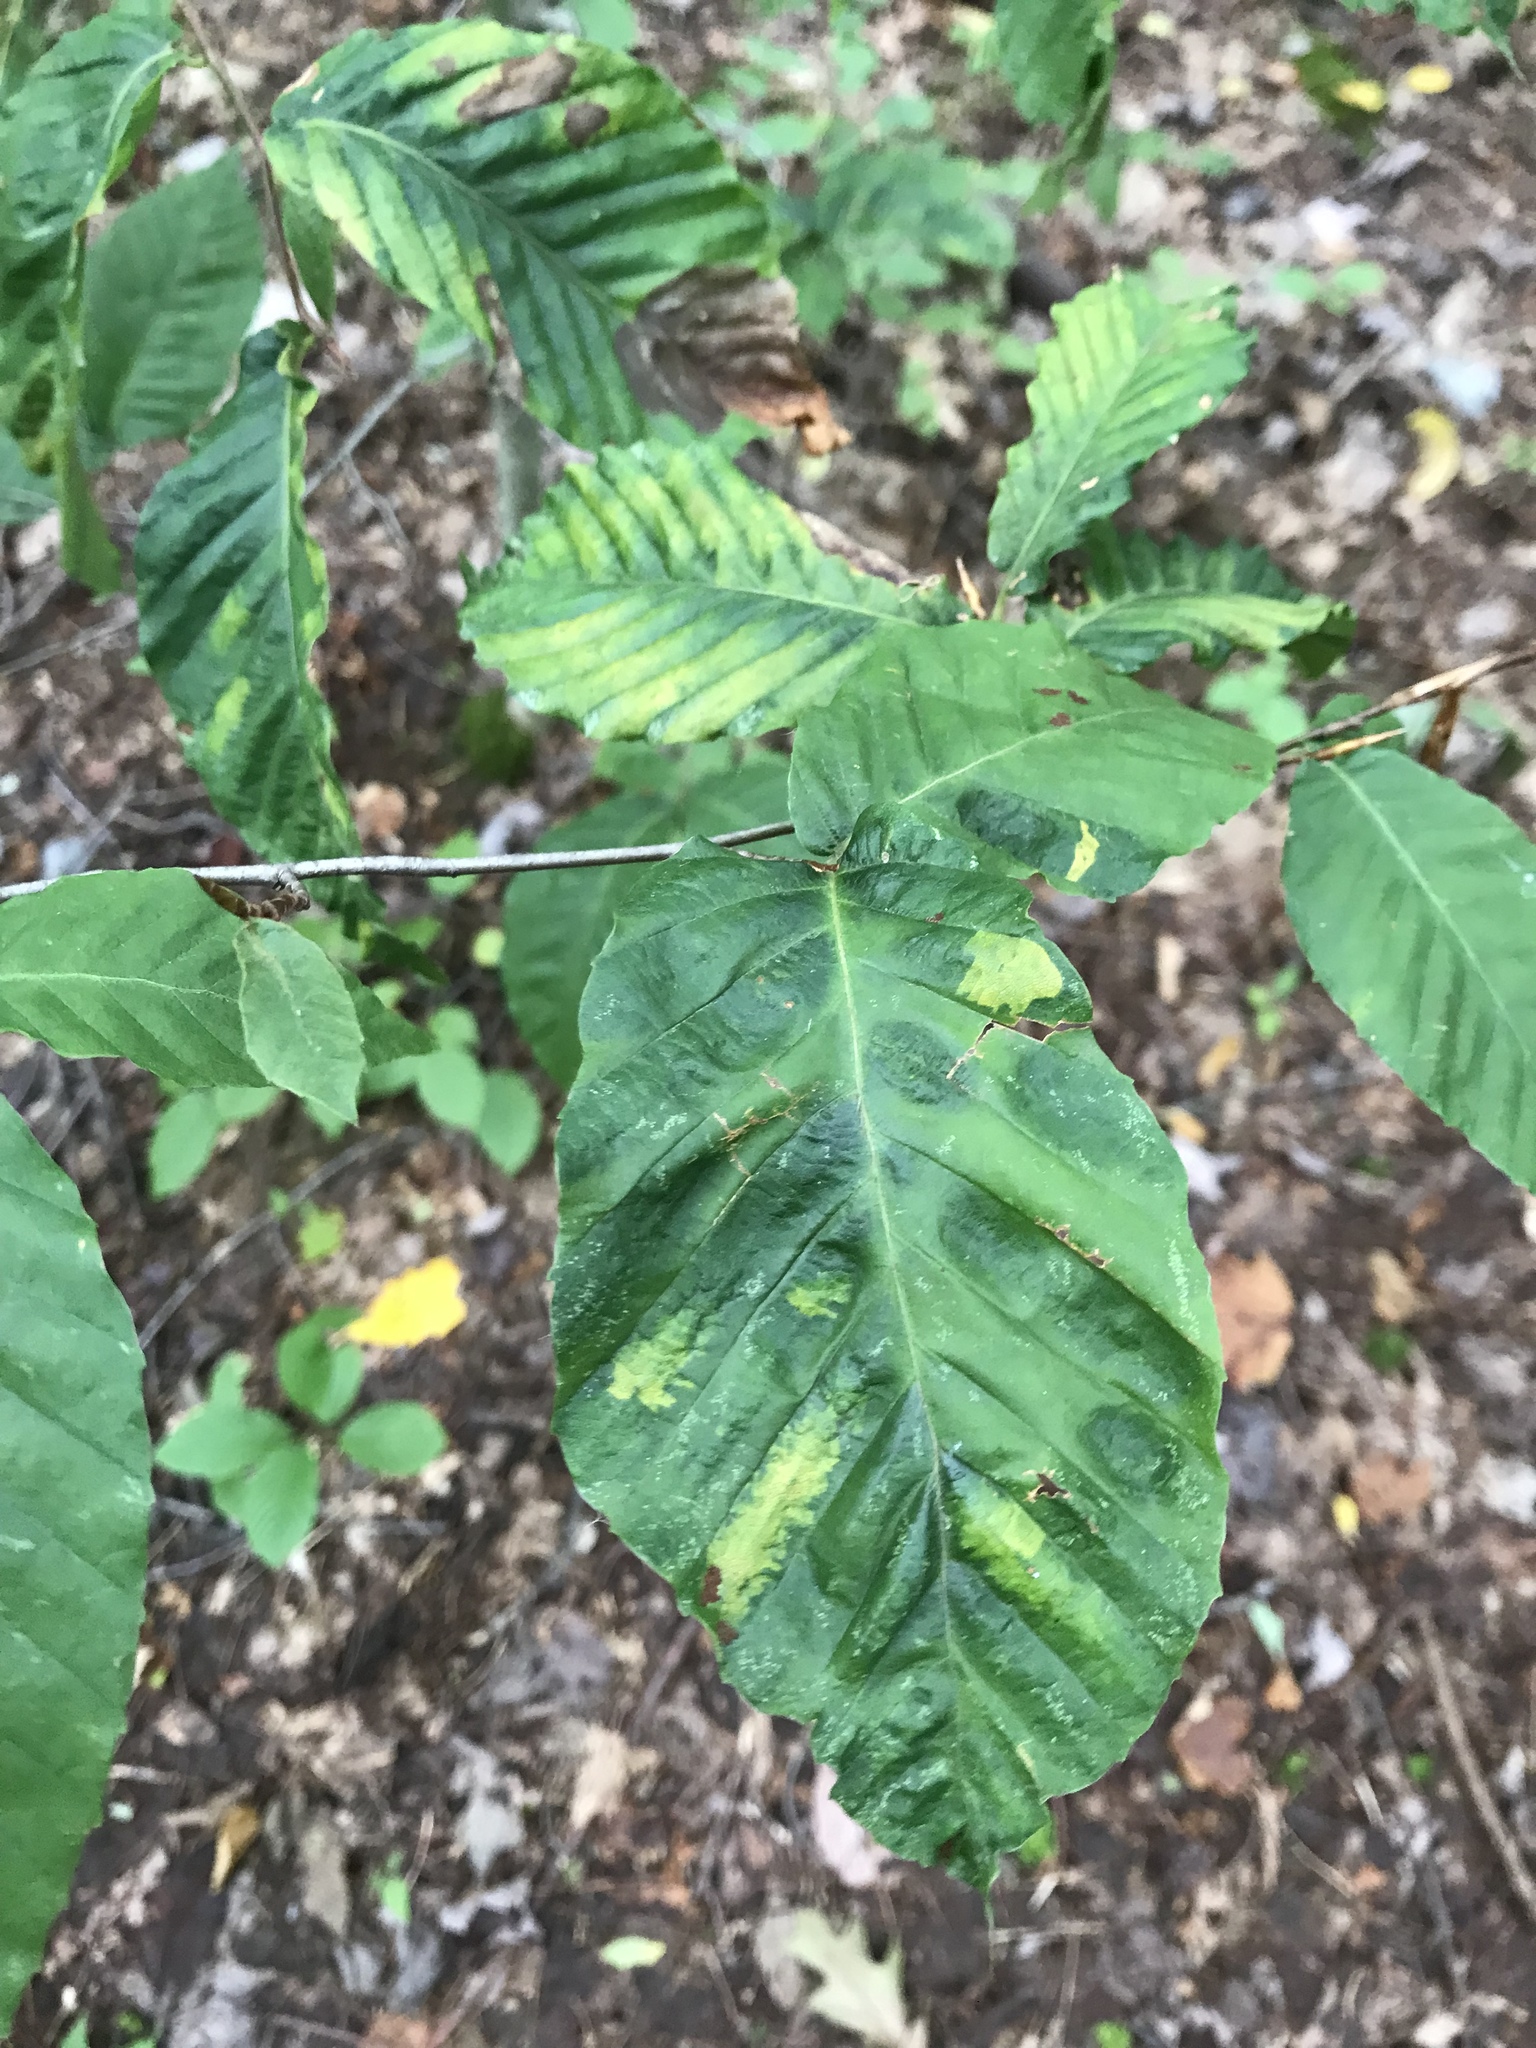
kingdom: Plantae
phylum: Tracheophyta
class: Magnoliopsida
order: Fagales
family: Fagaceae
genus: Fagus
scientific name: Fagus grandifolia
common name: American beech
